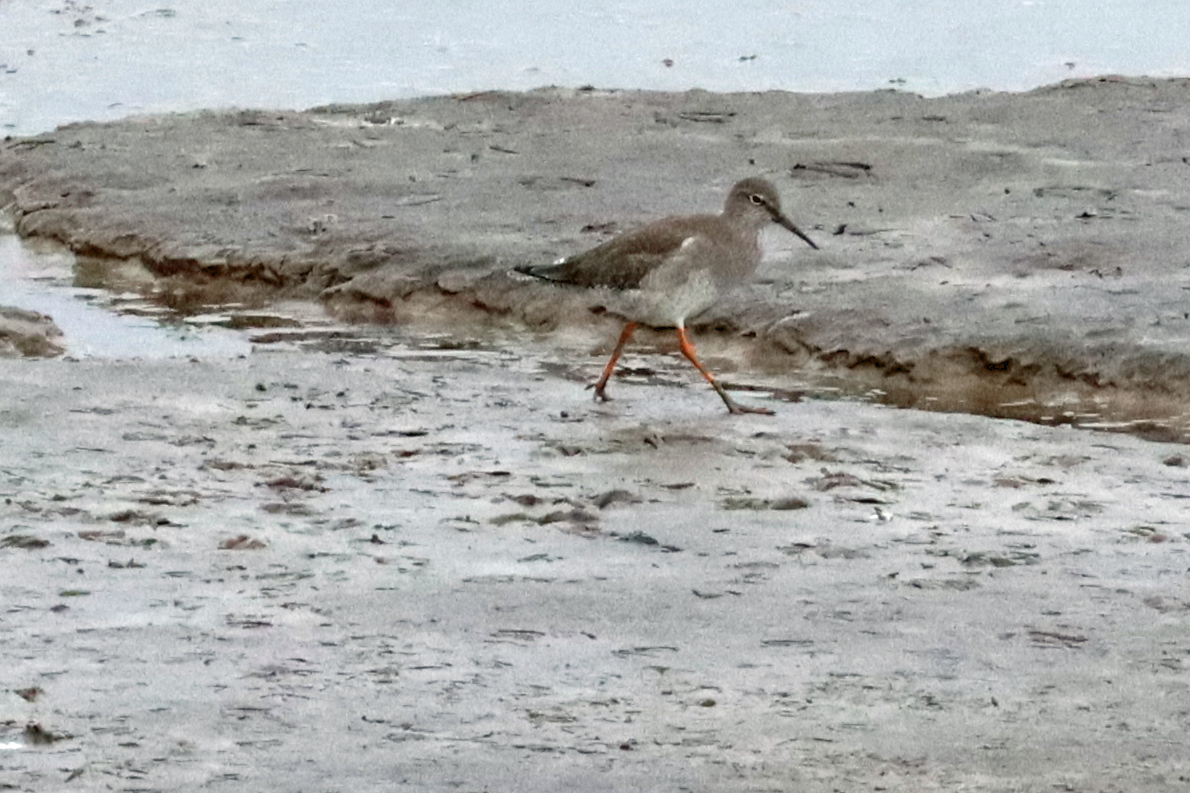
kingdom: Animalia
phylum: Chordata
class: Aves
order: Charadriiformes
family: Scolopacidae
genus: Tringa
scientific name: Tringa totanus
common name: Common redshank
